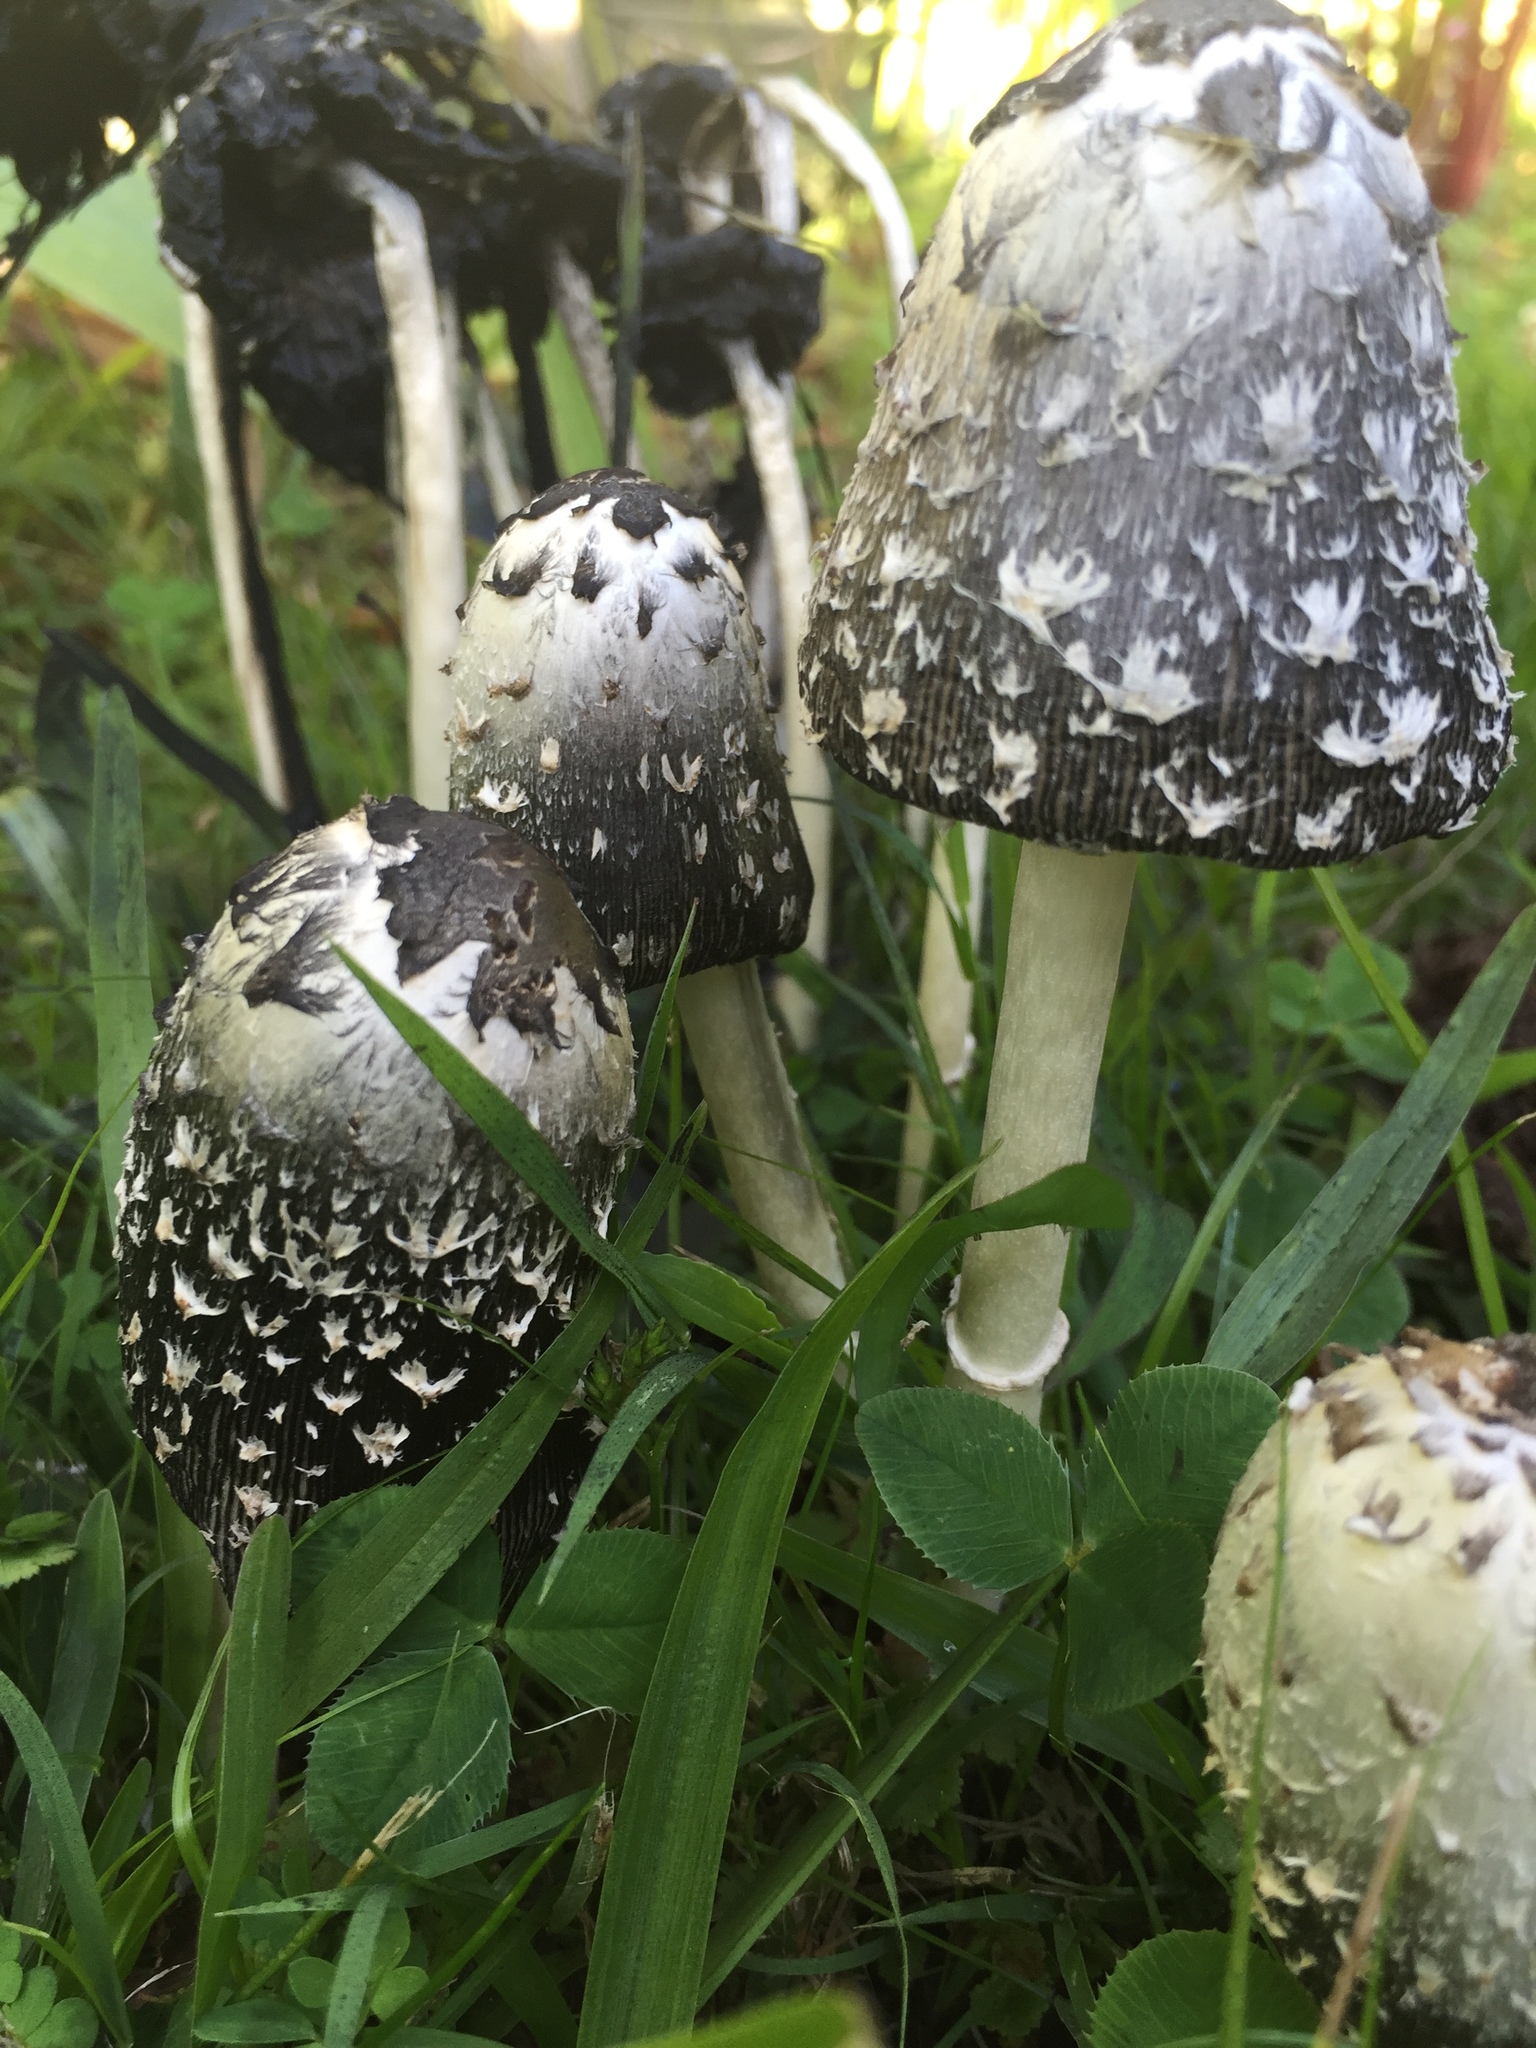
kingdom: Fungi
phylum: Basidiomycota
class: Agaricomycetes
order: Agaricales
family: Agaricaceae
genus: Coprinus
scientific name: Coprinus comatus
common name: Lawyer's wig
